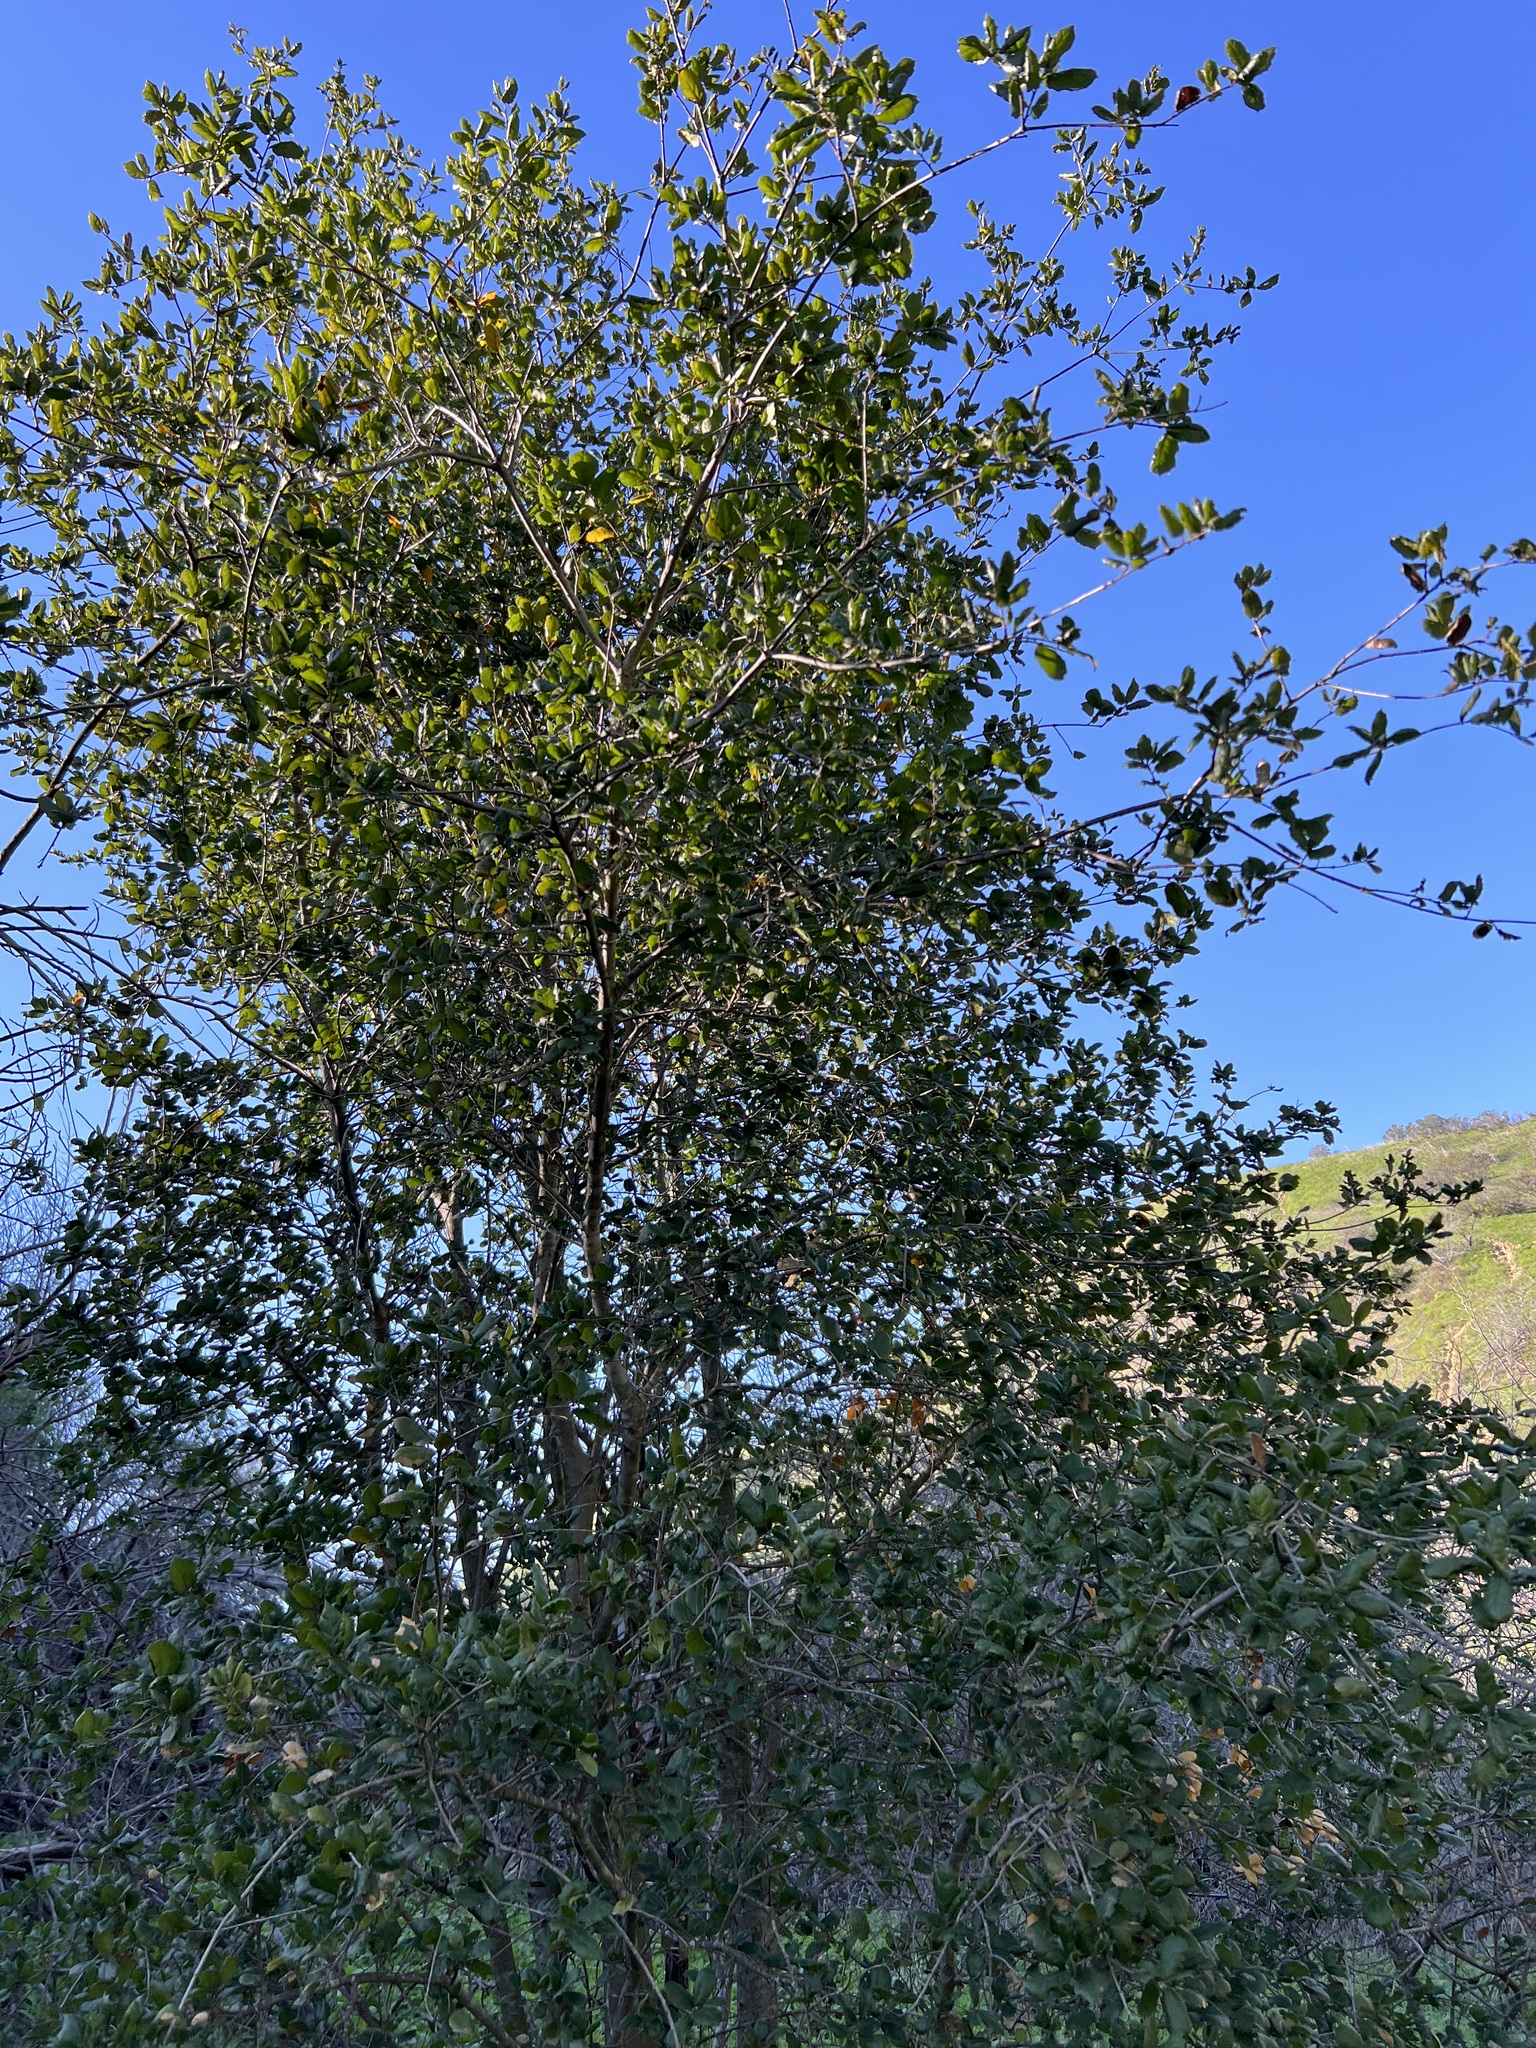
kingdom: Plantae
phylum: Tracheophyta
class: Magnoliopsida
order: Fagales
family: Fagaceae
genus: Quercus
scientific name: Quercus agrifolia
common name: California live oak
